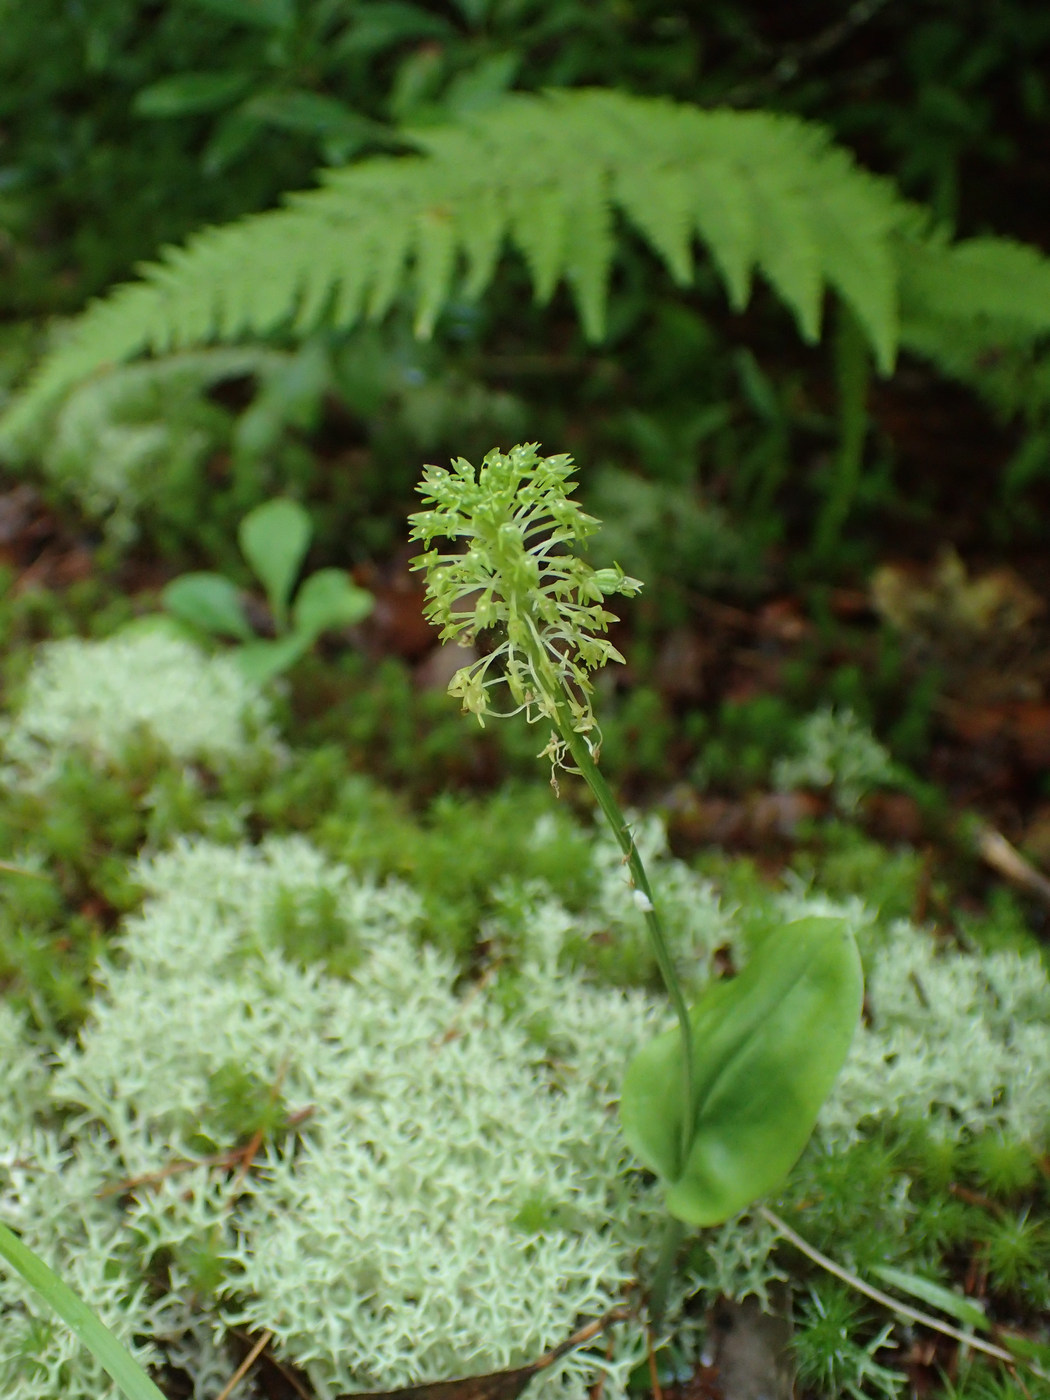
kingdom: Plantae
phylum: Tracheophyta
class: Liliopsida
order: Asparagales
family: Orchidaceae
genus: Malaxis
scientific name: Malaxis unifolia
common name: Green adder's-mouth
